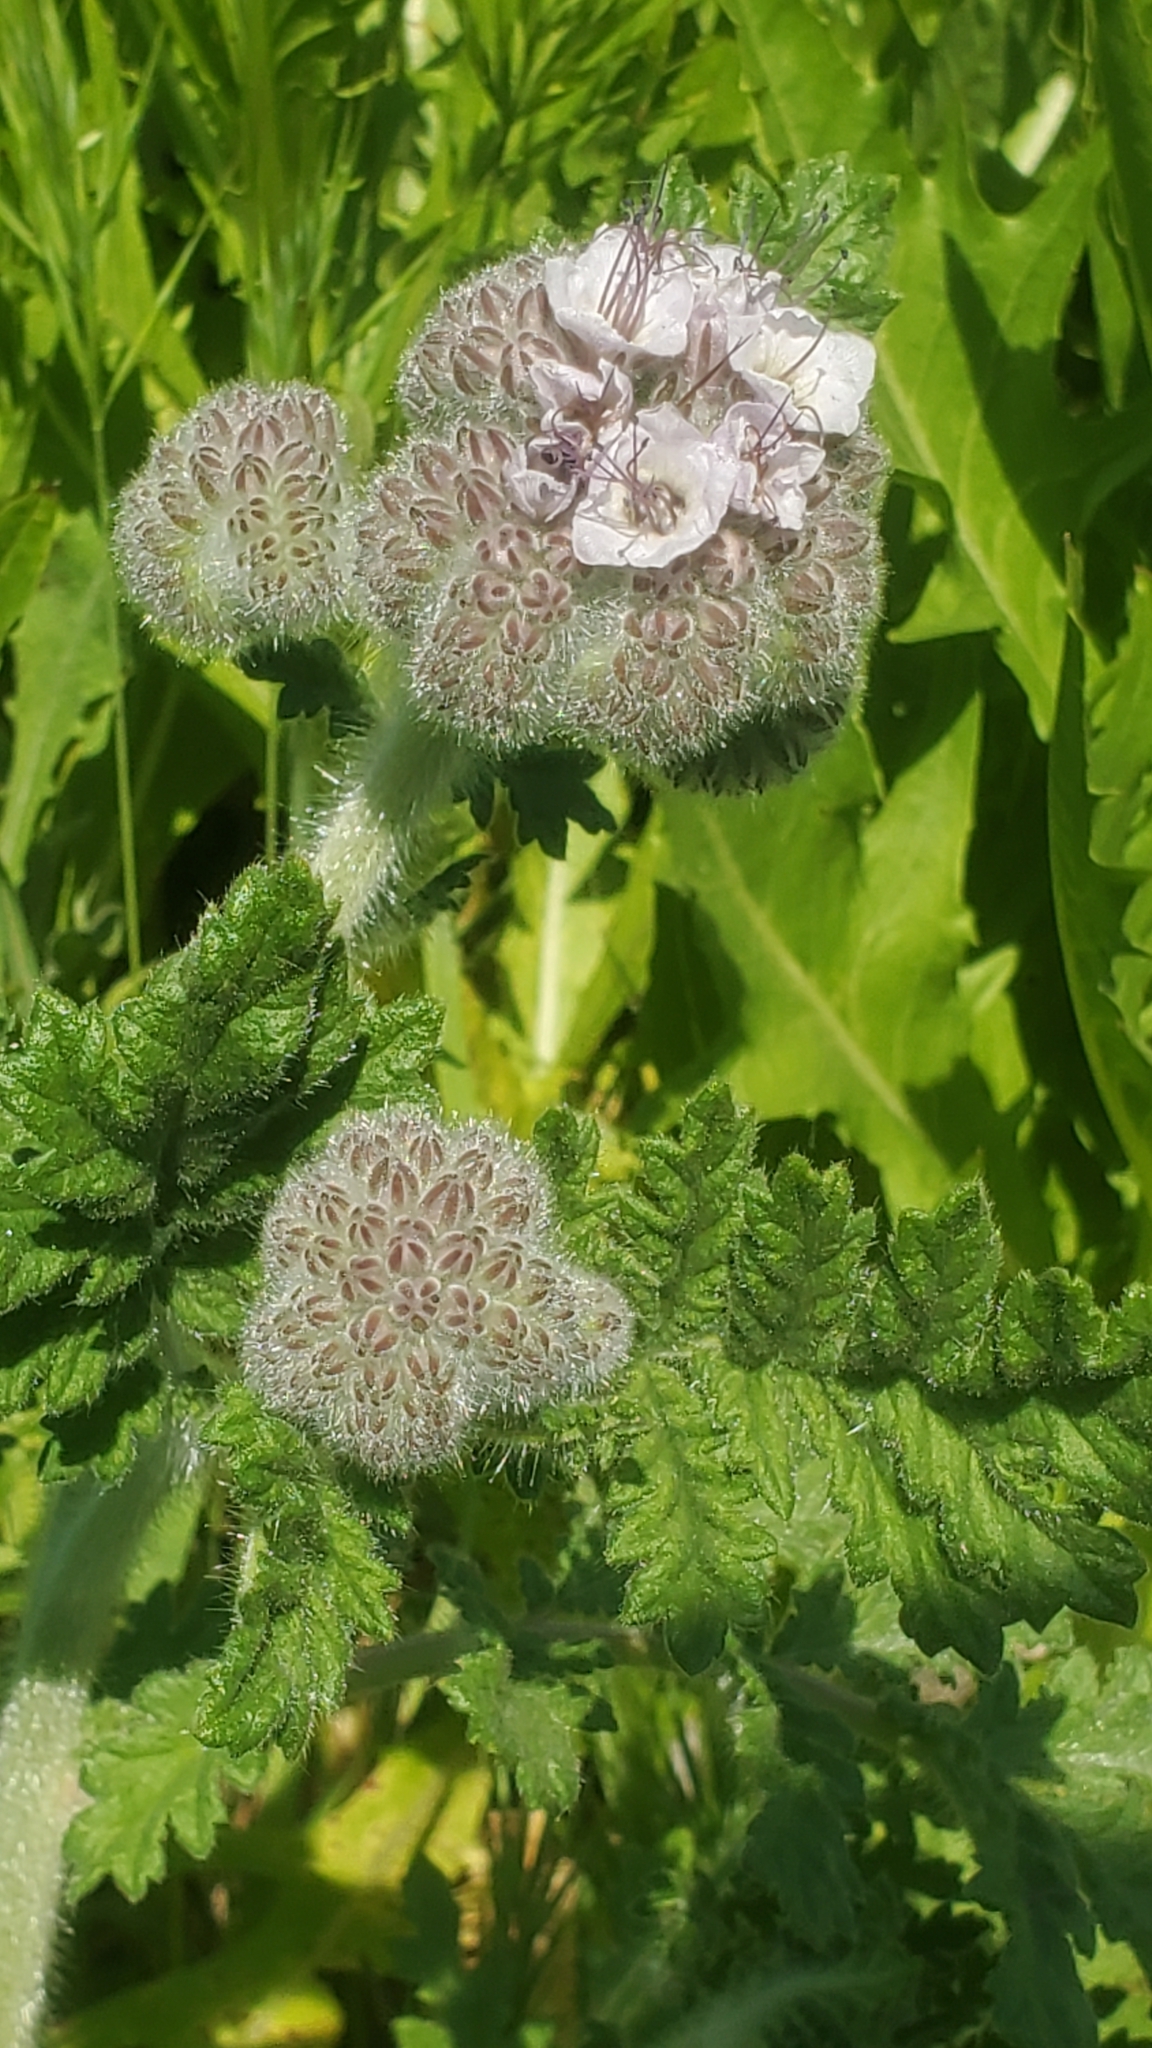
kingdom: Plantae
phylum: Tracheophyta
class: Magnoliopsida
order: Boraginales
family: Hydrophyllaceae
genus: Phacelia
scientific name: Phacelia hubbyi
